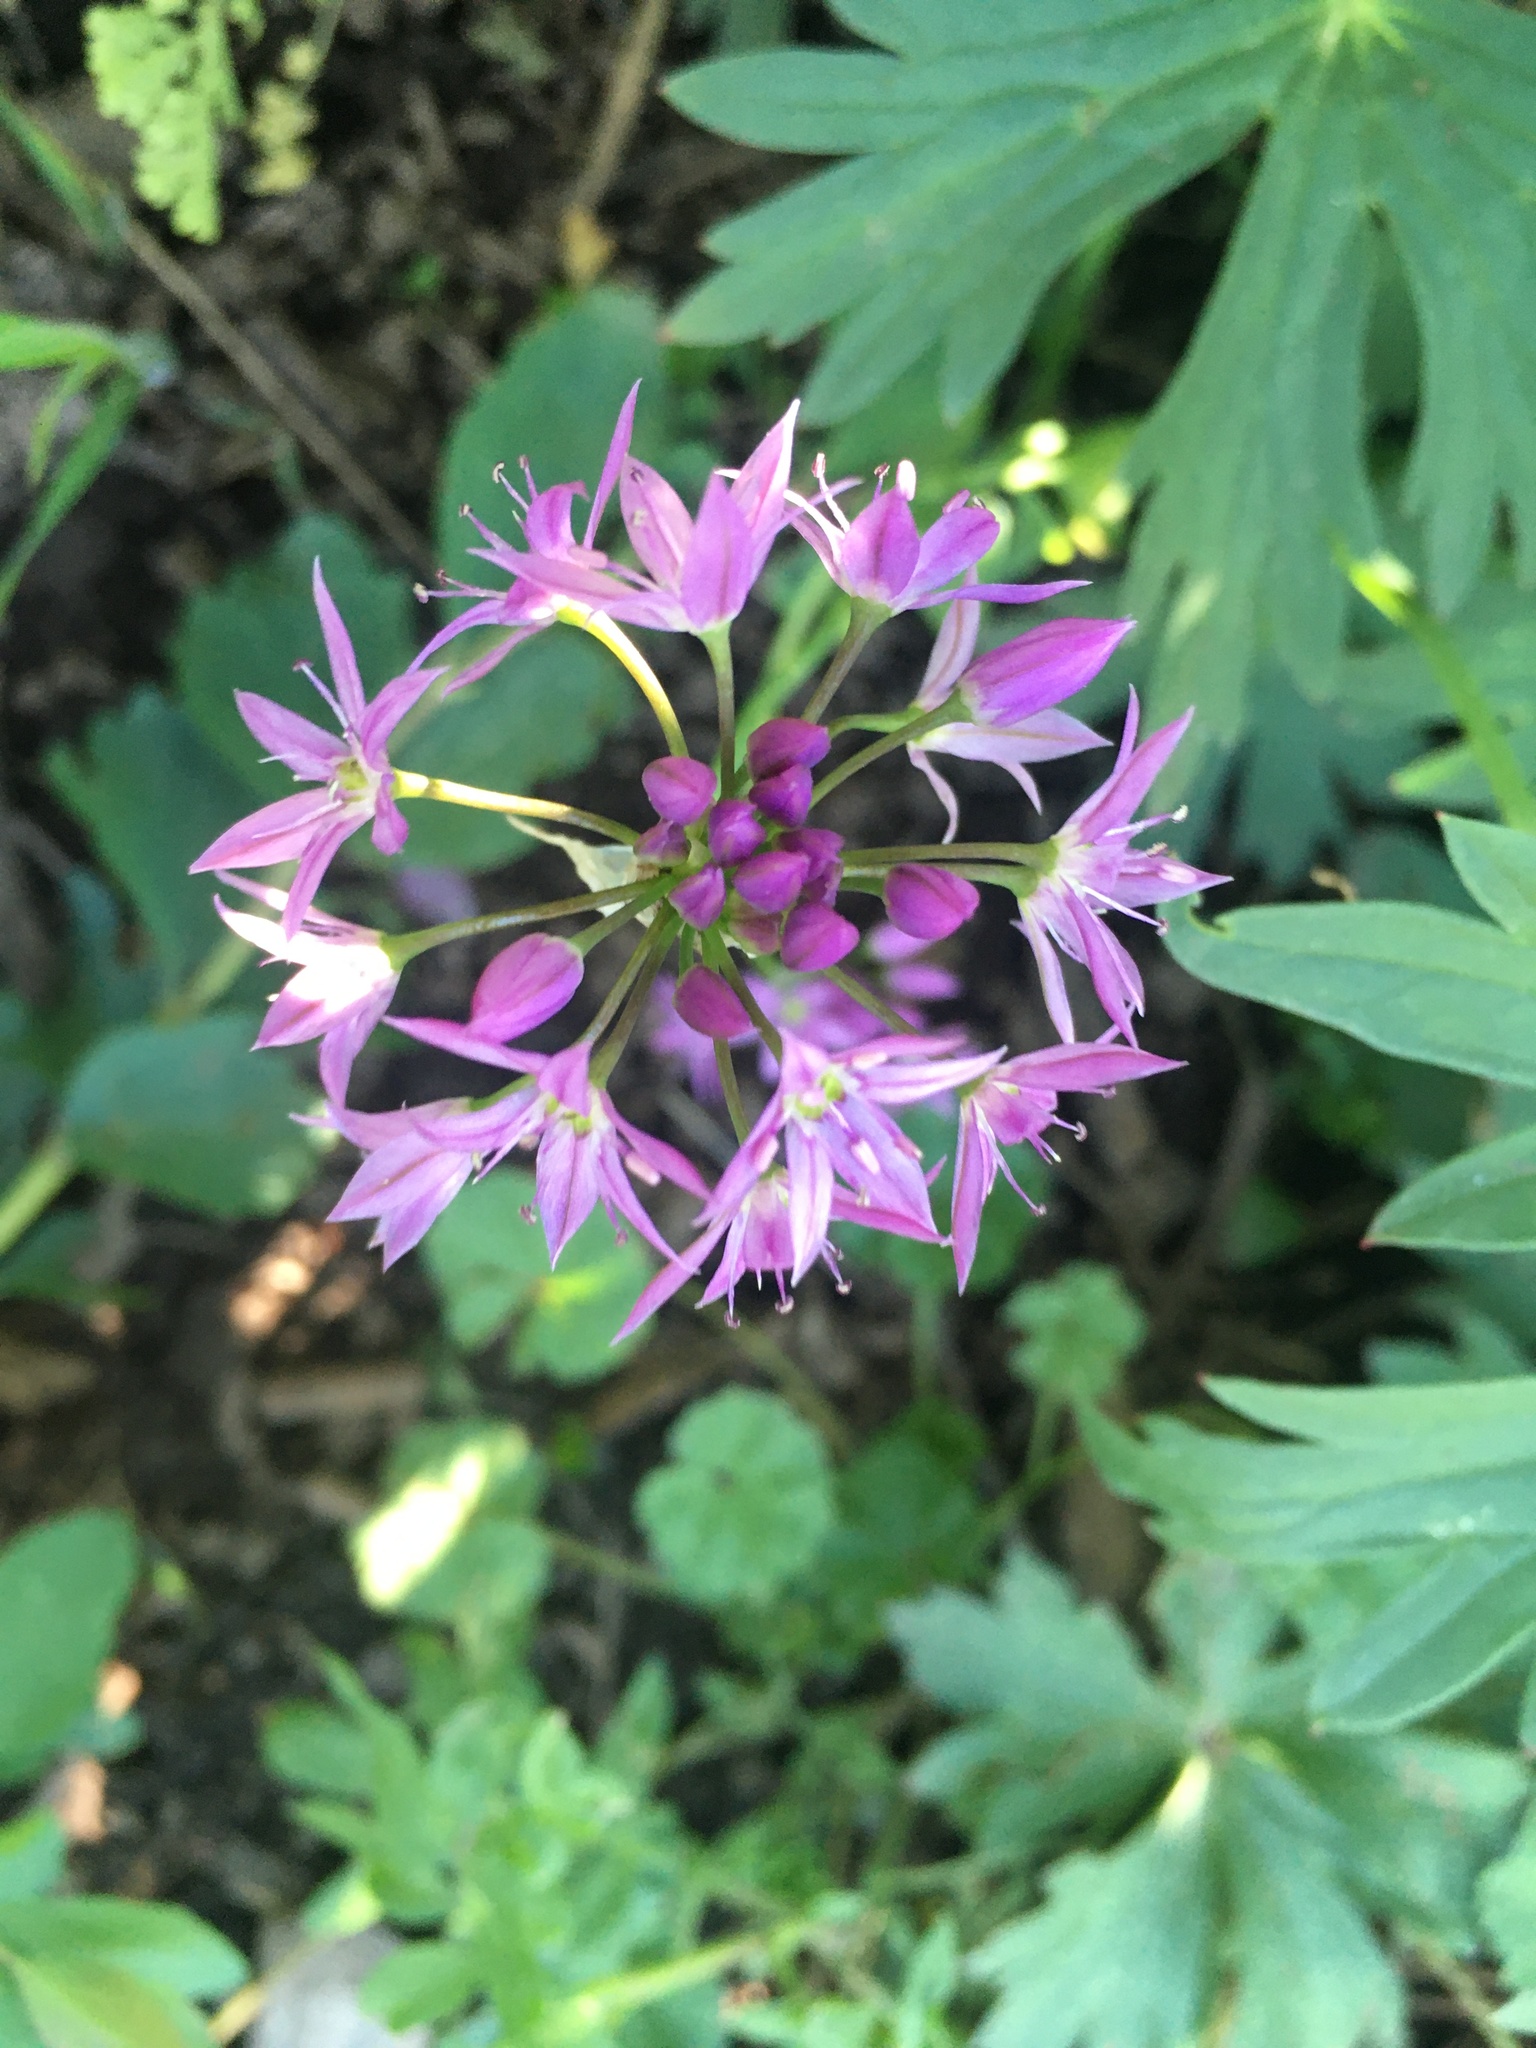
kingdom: Plantae
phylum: Tracheophyta
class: Liliopsida
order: Asparagales
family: Amaryllidaceae
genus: Allium
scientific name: Allium bisceptrum
